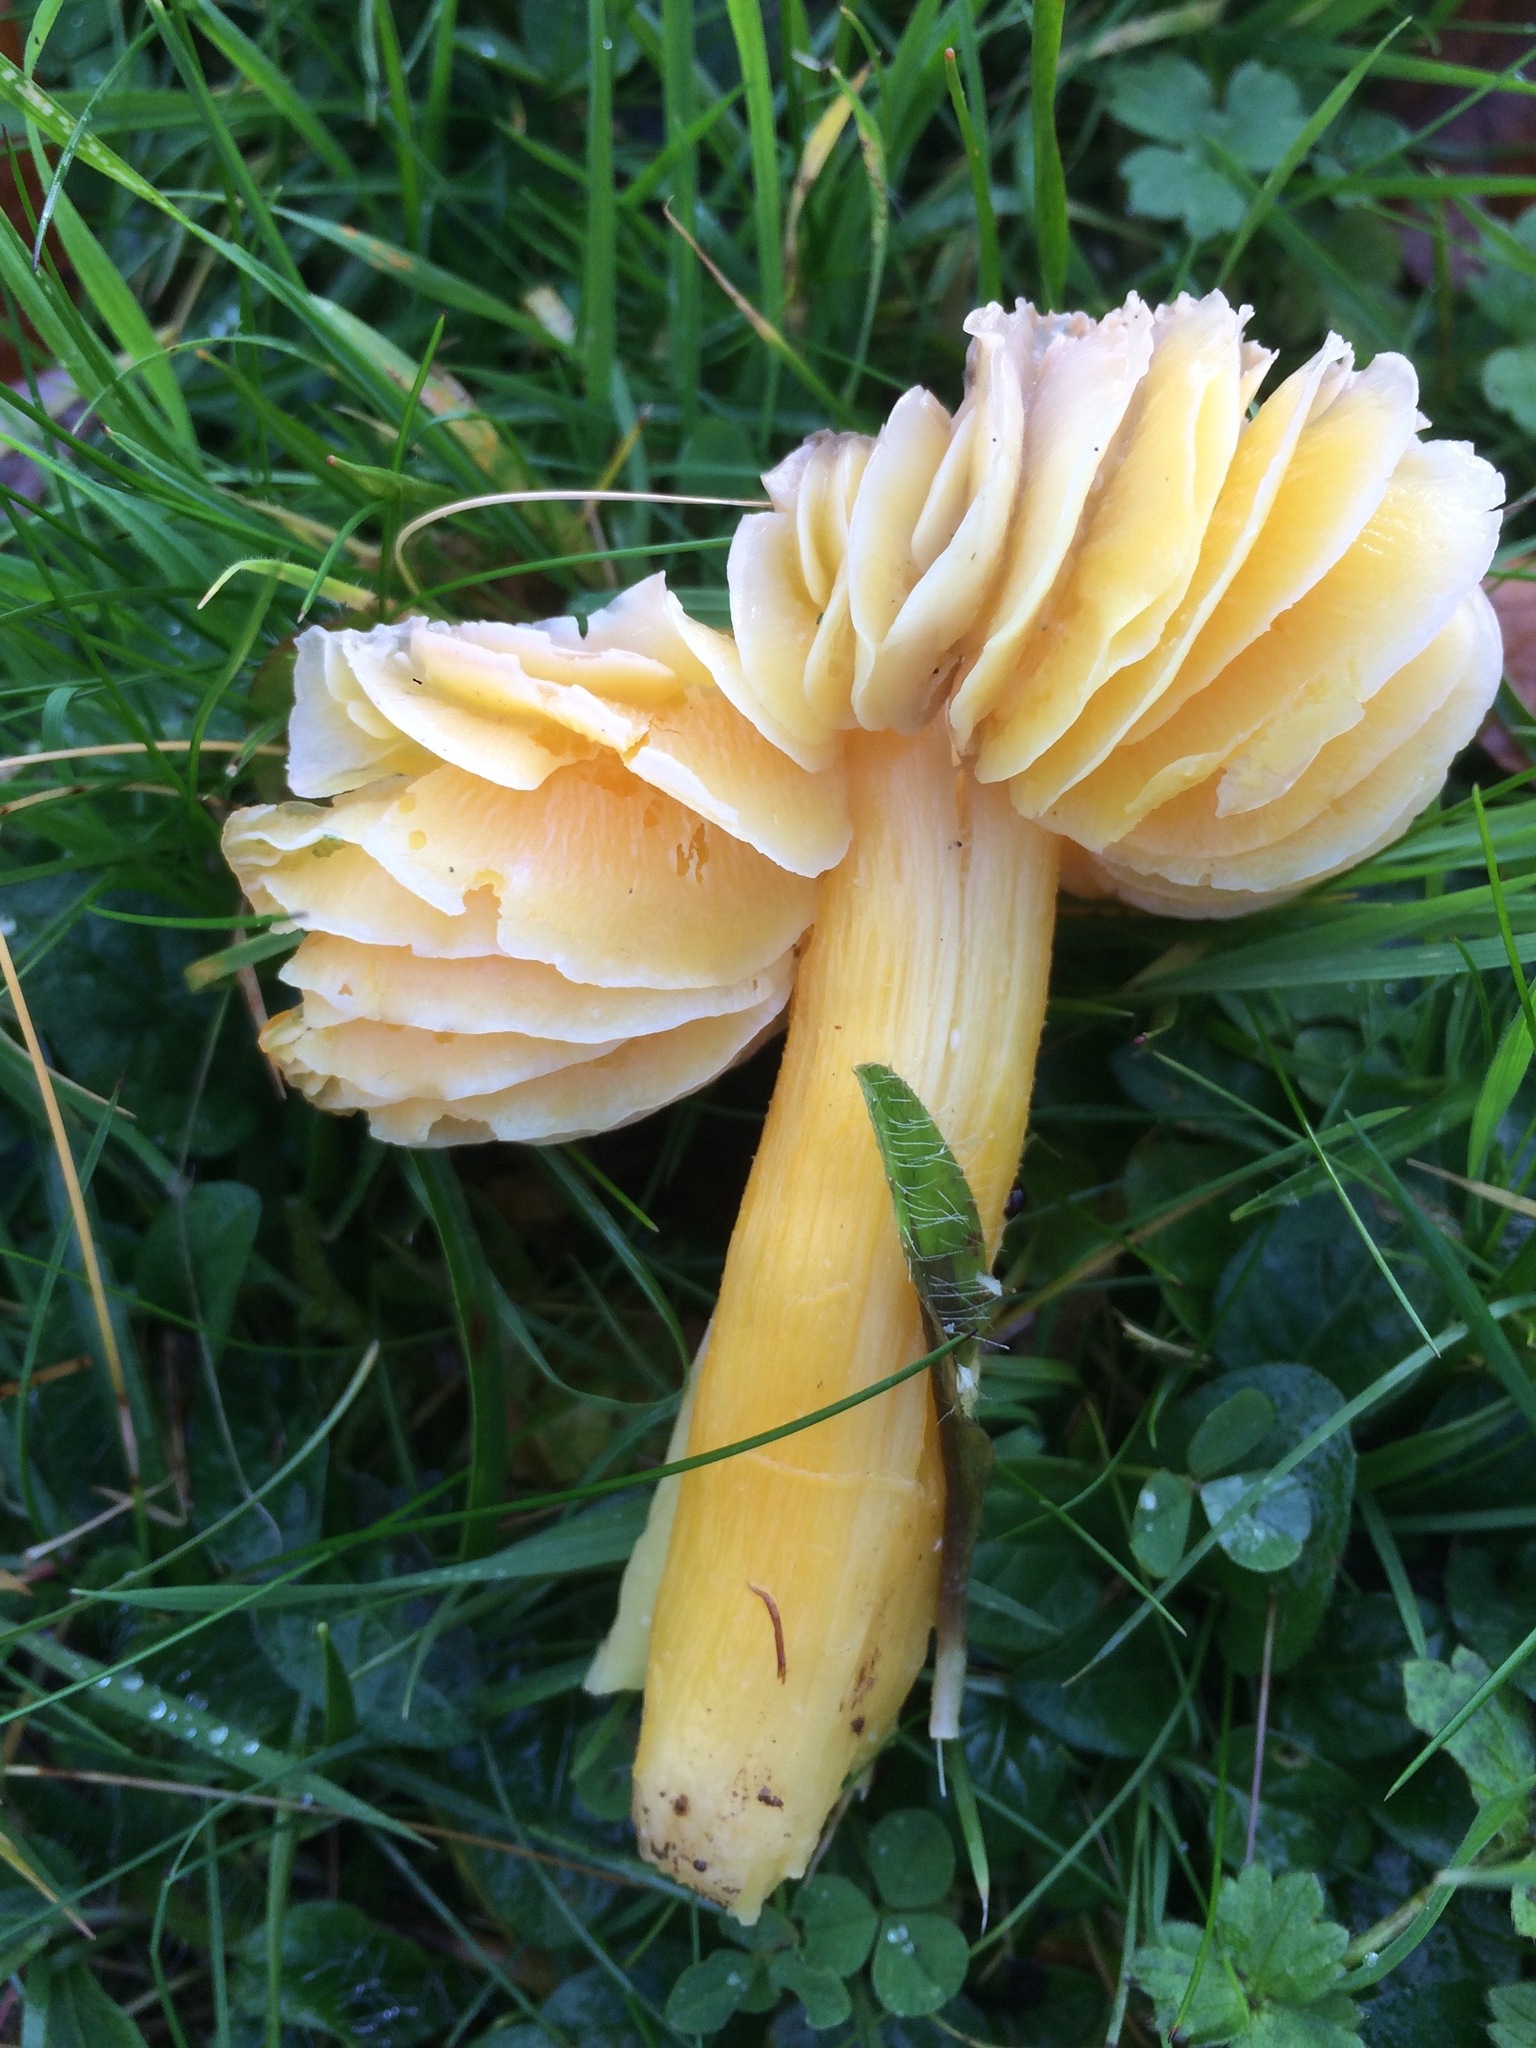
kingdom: Fungi
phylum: Basidiomycota
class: Agaricomycetes
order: Agaricales
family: Hygrophoraceae
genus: Hygrocybe
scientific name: Hygrocybe quieta
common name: Oily waxcap
